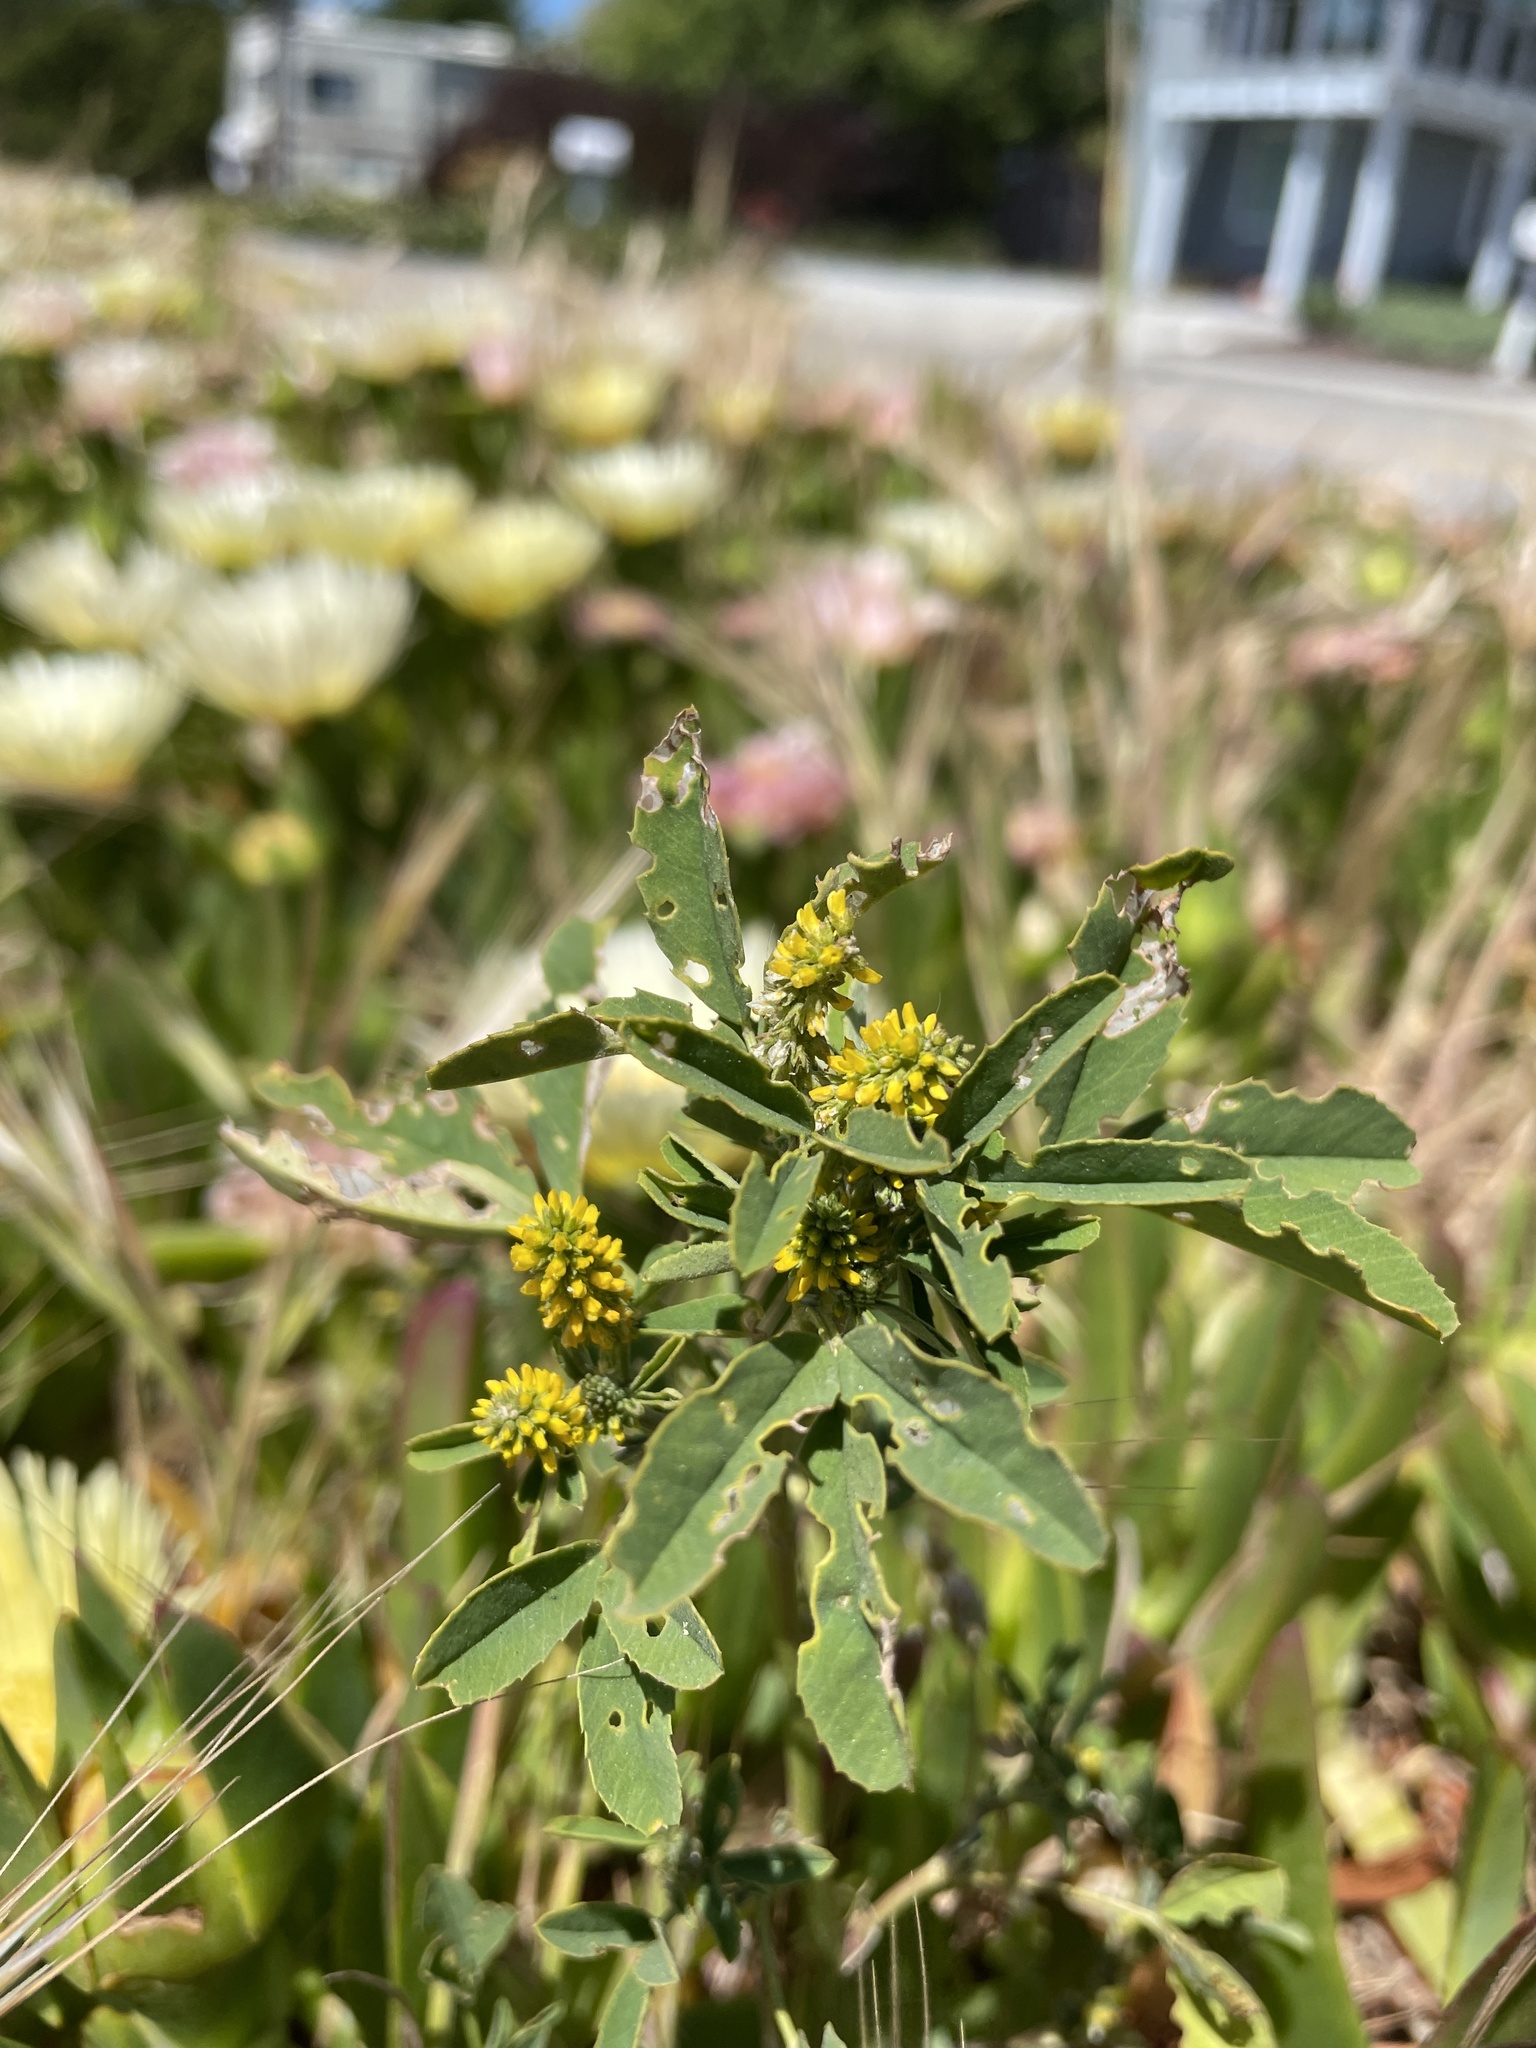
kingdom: Plantae
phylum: Tracheophyta
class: Magnoliopsida
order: Fabales
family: Fabaceae
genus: Melilotus
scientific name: Melilotus indicus
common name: Small melilot
